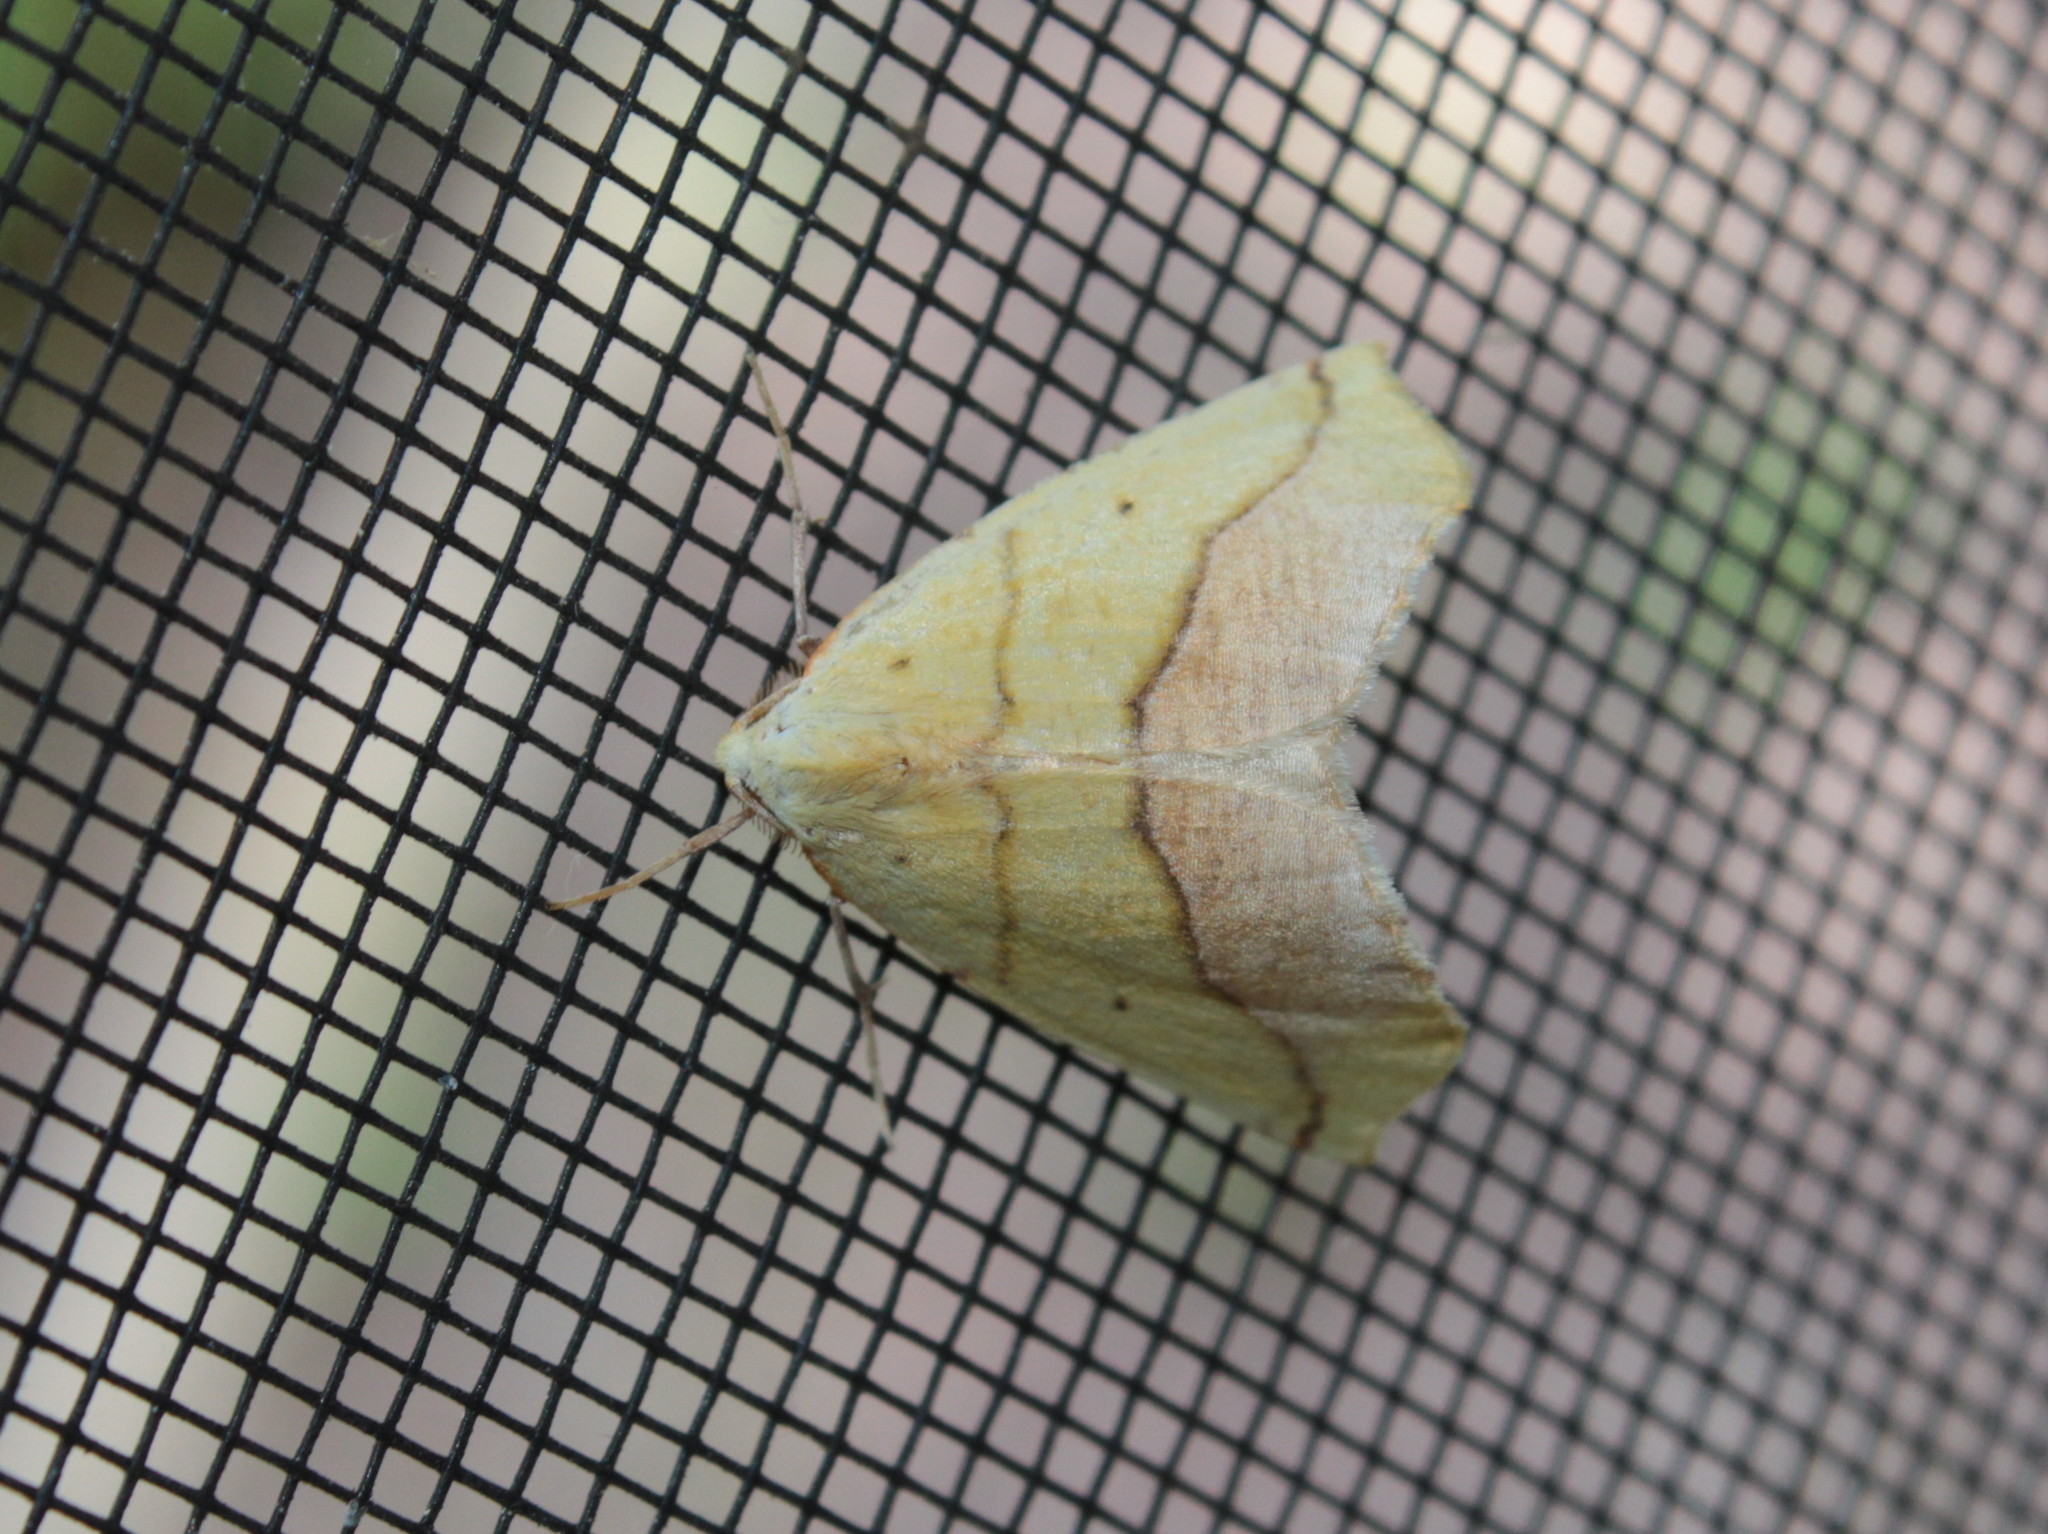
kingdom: Animalia
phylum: Arthropoda
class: Insecta
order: Lepidoptera
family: Geometridae
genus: Sicya
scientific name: Sicya macularia
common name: Sharp-lined yellow
